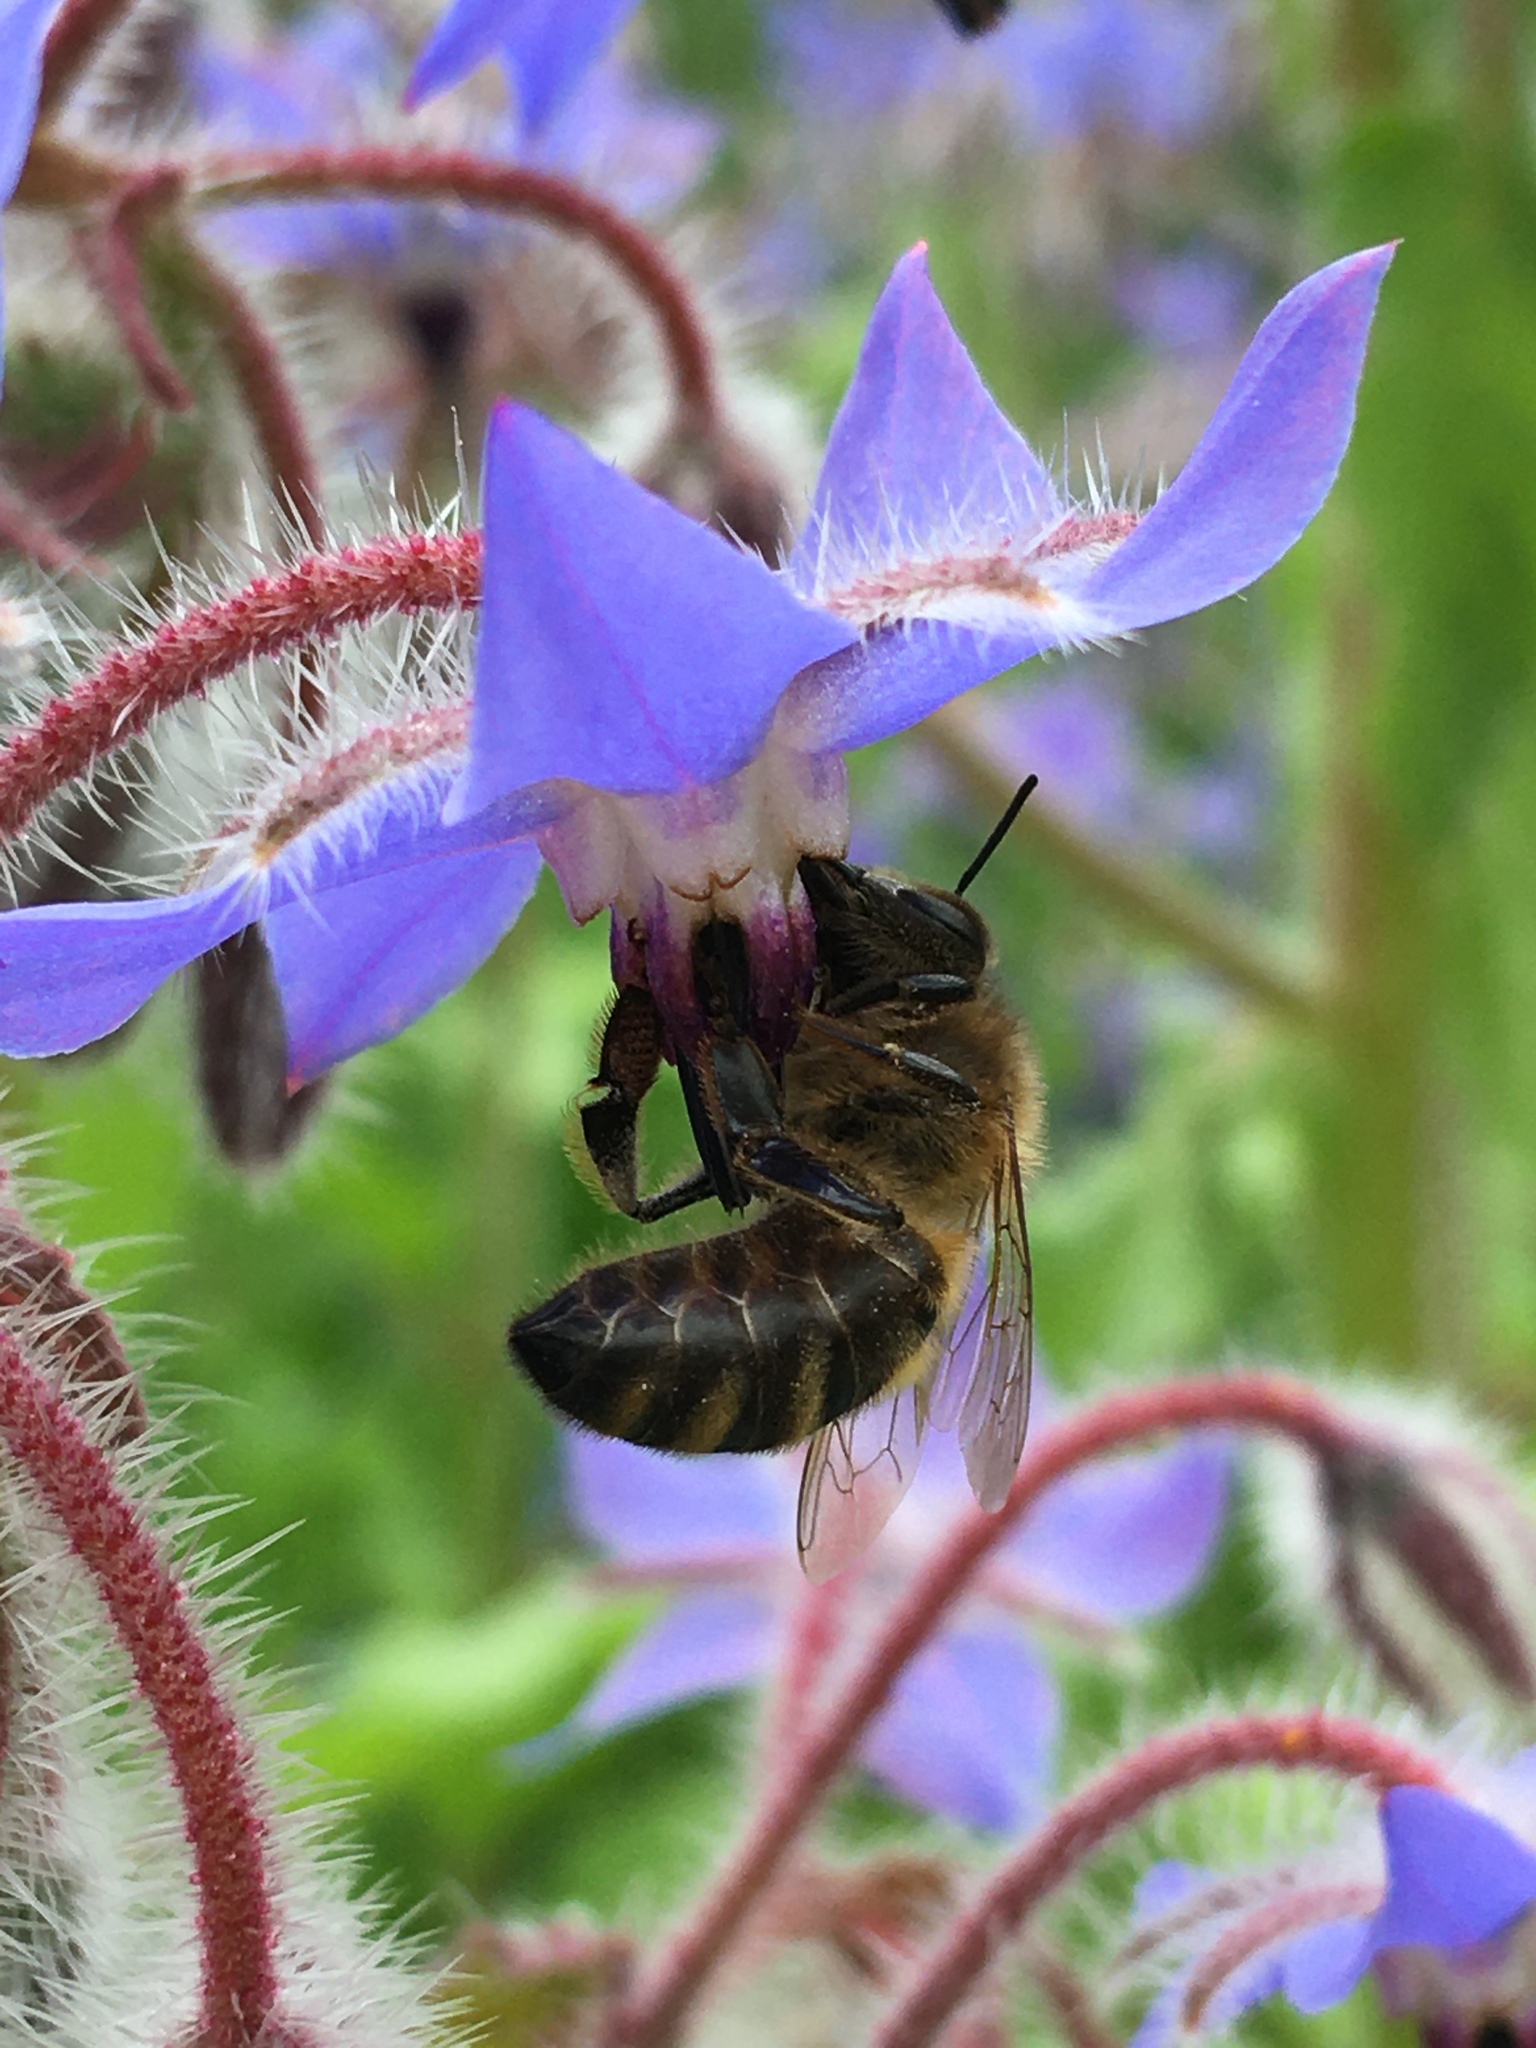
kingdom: Animalia
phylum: Arthropoda
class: Insecta
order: Hymenoptera
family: Apidae
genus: Apis
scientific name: Apis mellifera
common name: Honey bee
